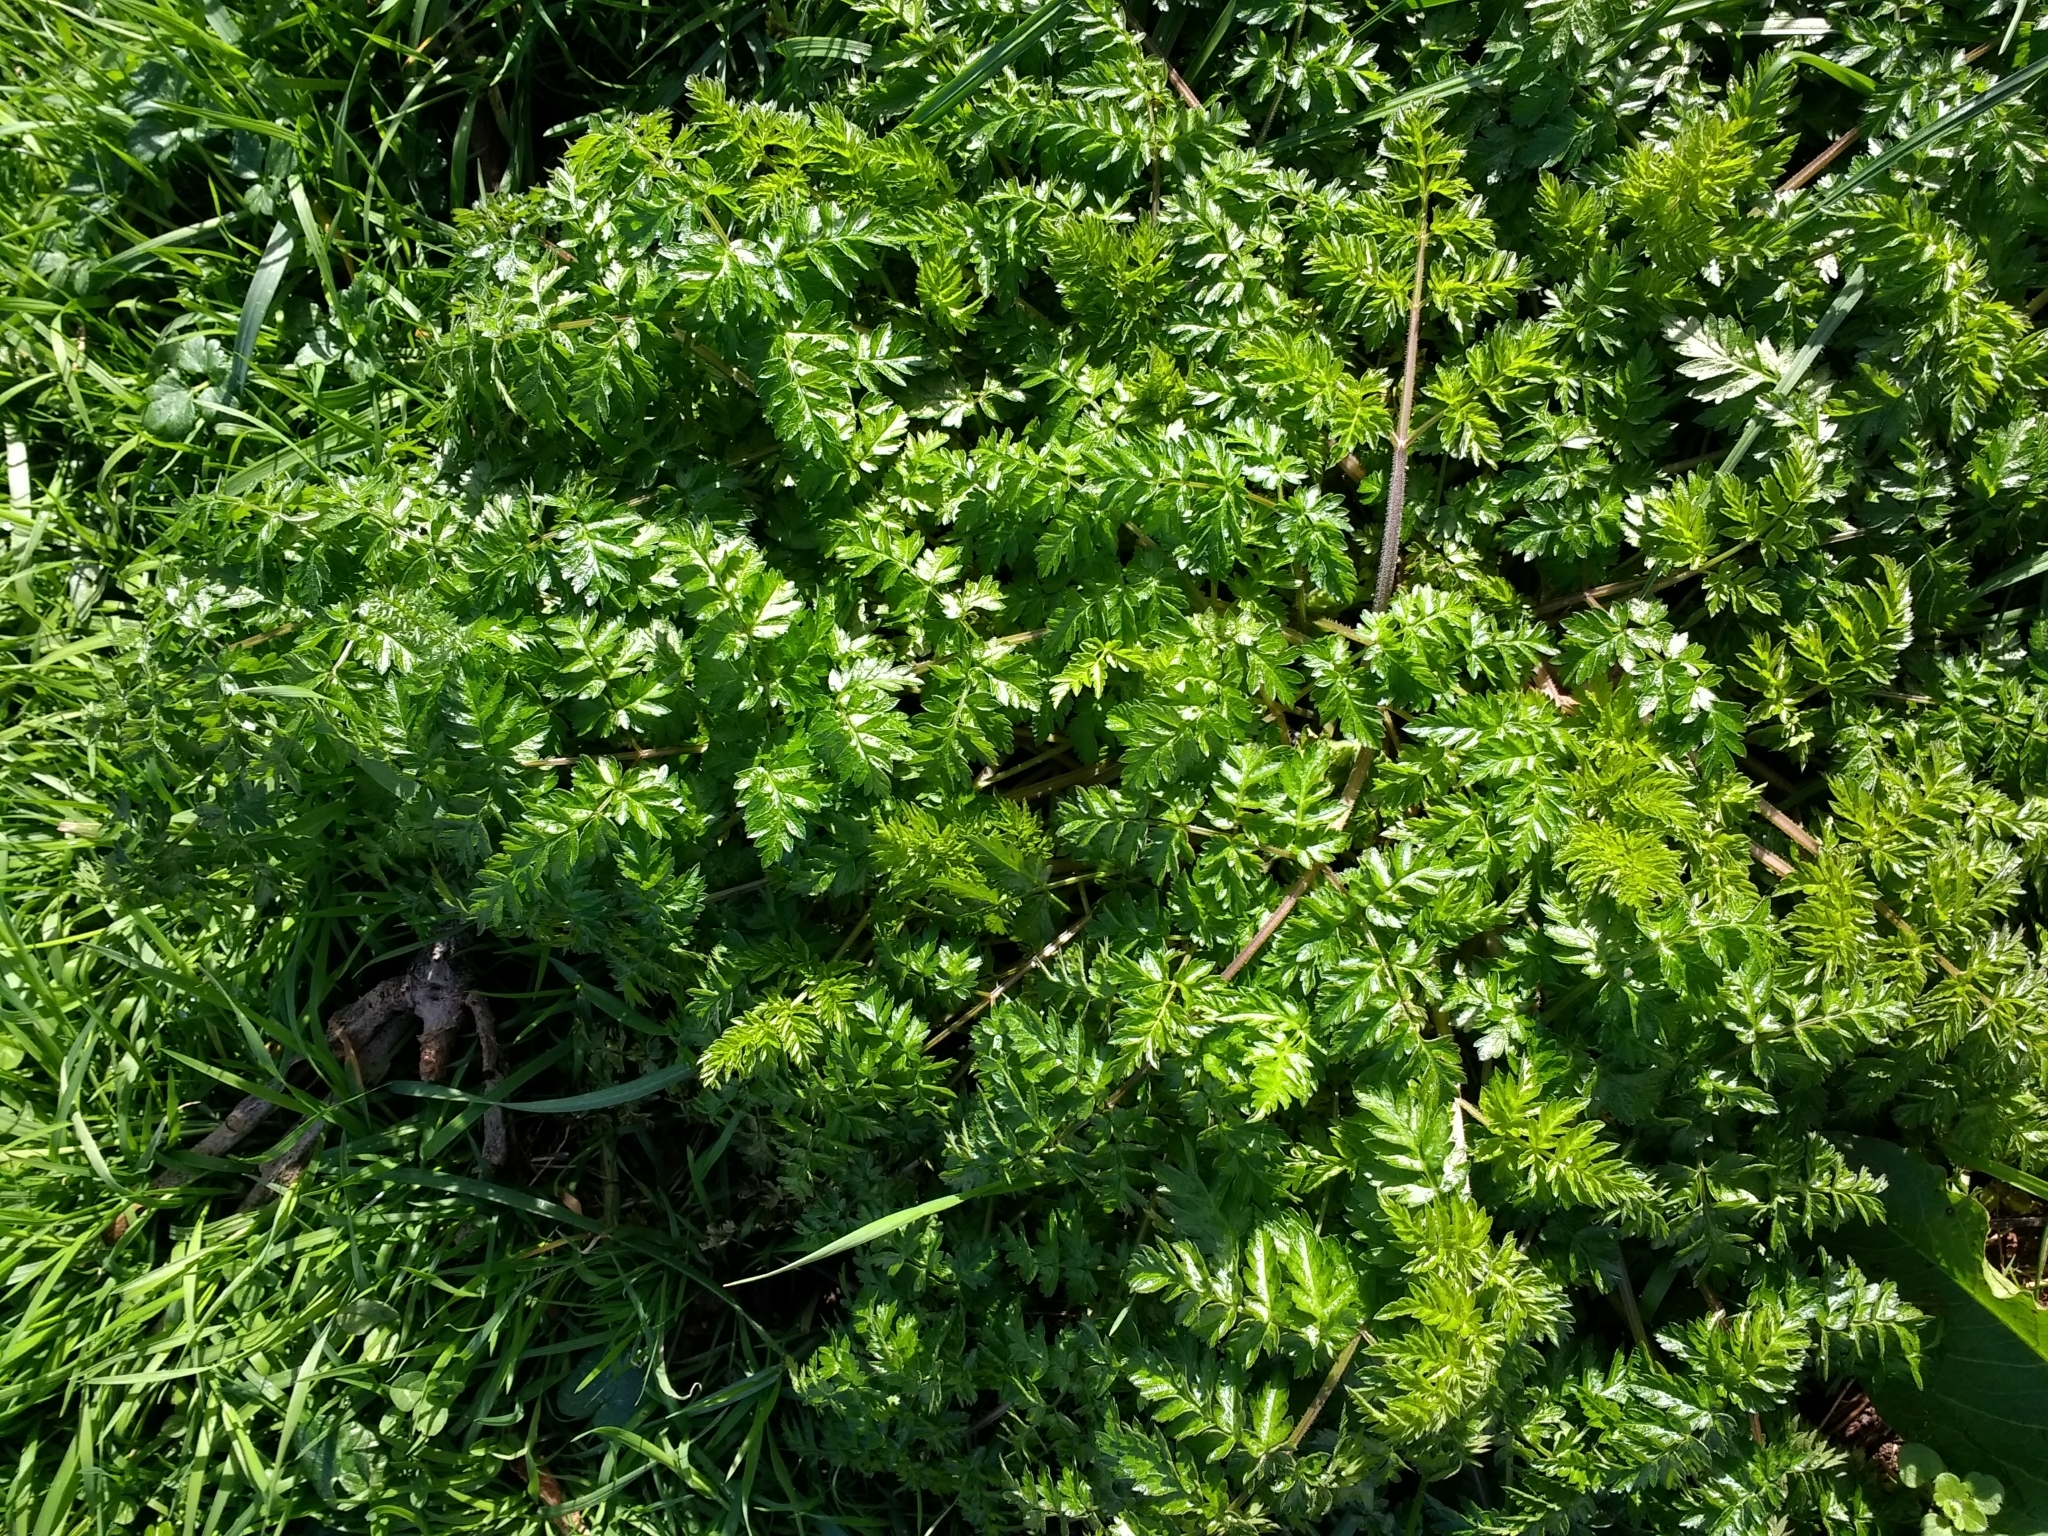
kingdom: Plantae
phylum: Tracheophyta
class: Magnoliopsida
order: Apiales
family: Apiaceae
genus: Anthriscus
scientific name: Anthriscus sylvestris
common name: Cow parsley
